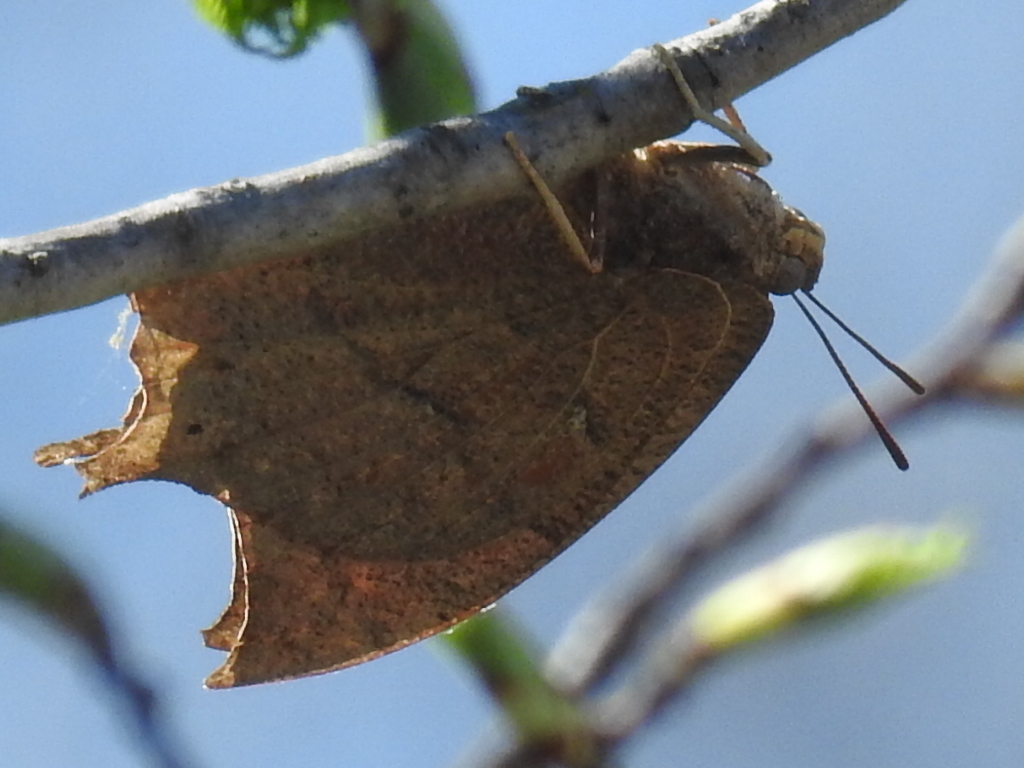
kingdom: Animalia
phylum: Arthropoda
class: Insecta
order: Lepidoptera
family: Nymphalidae
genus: Anaea
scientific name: Anaea andria
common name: Goatweed leafwing
